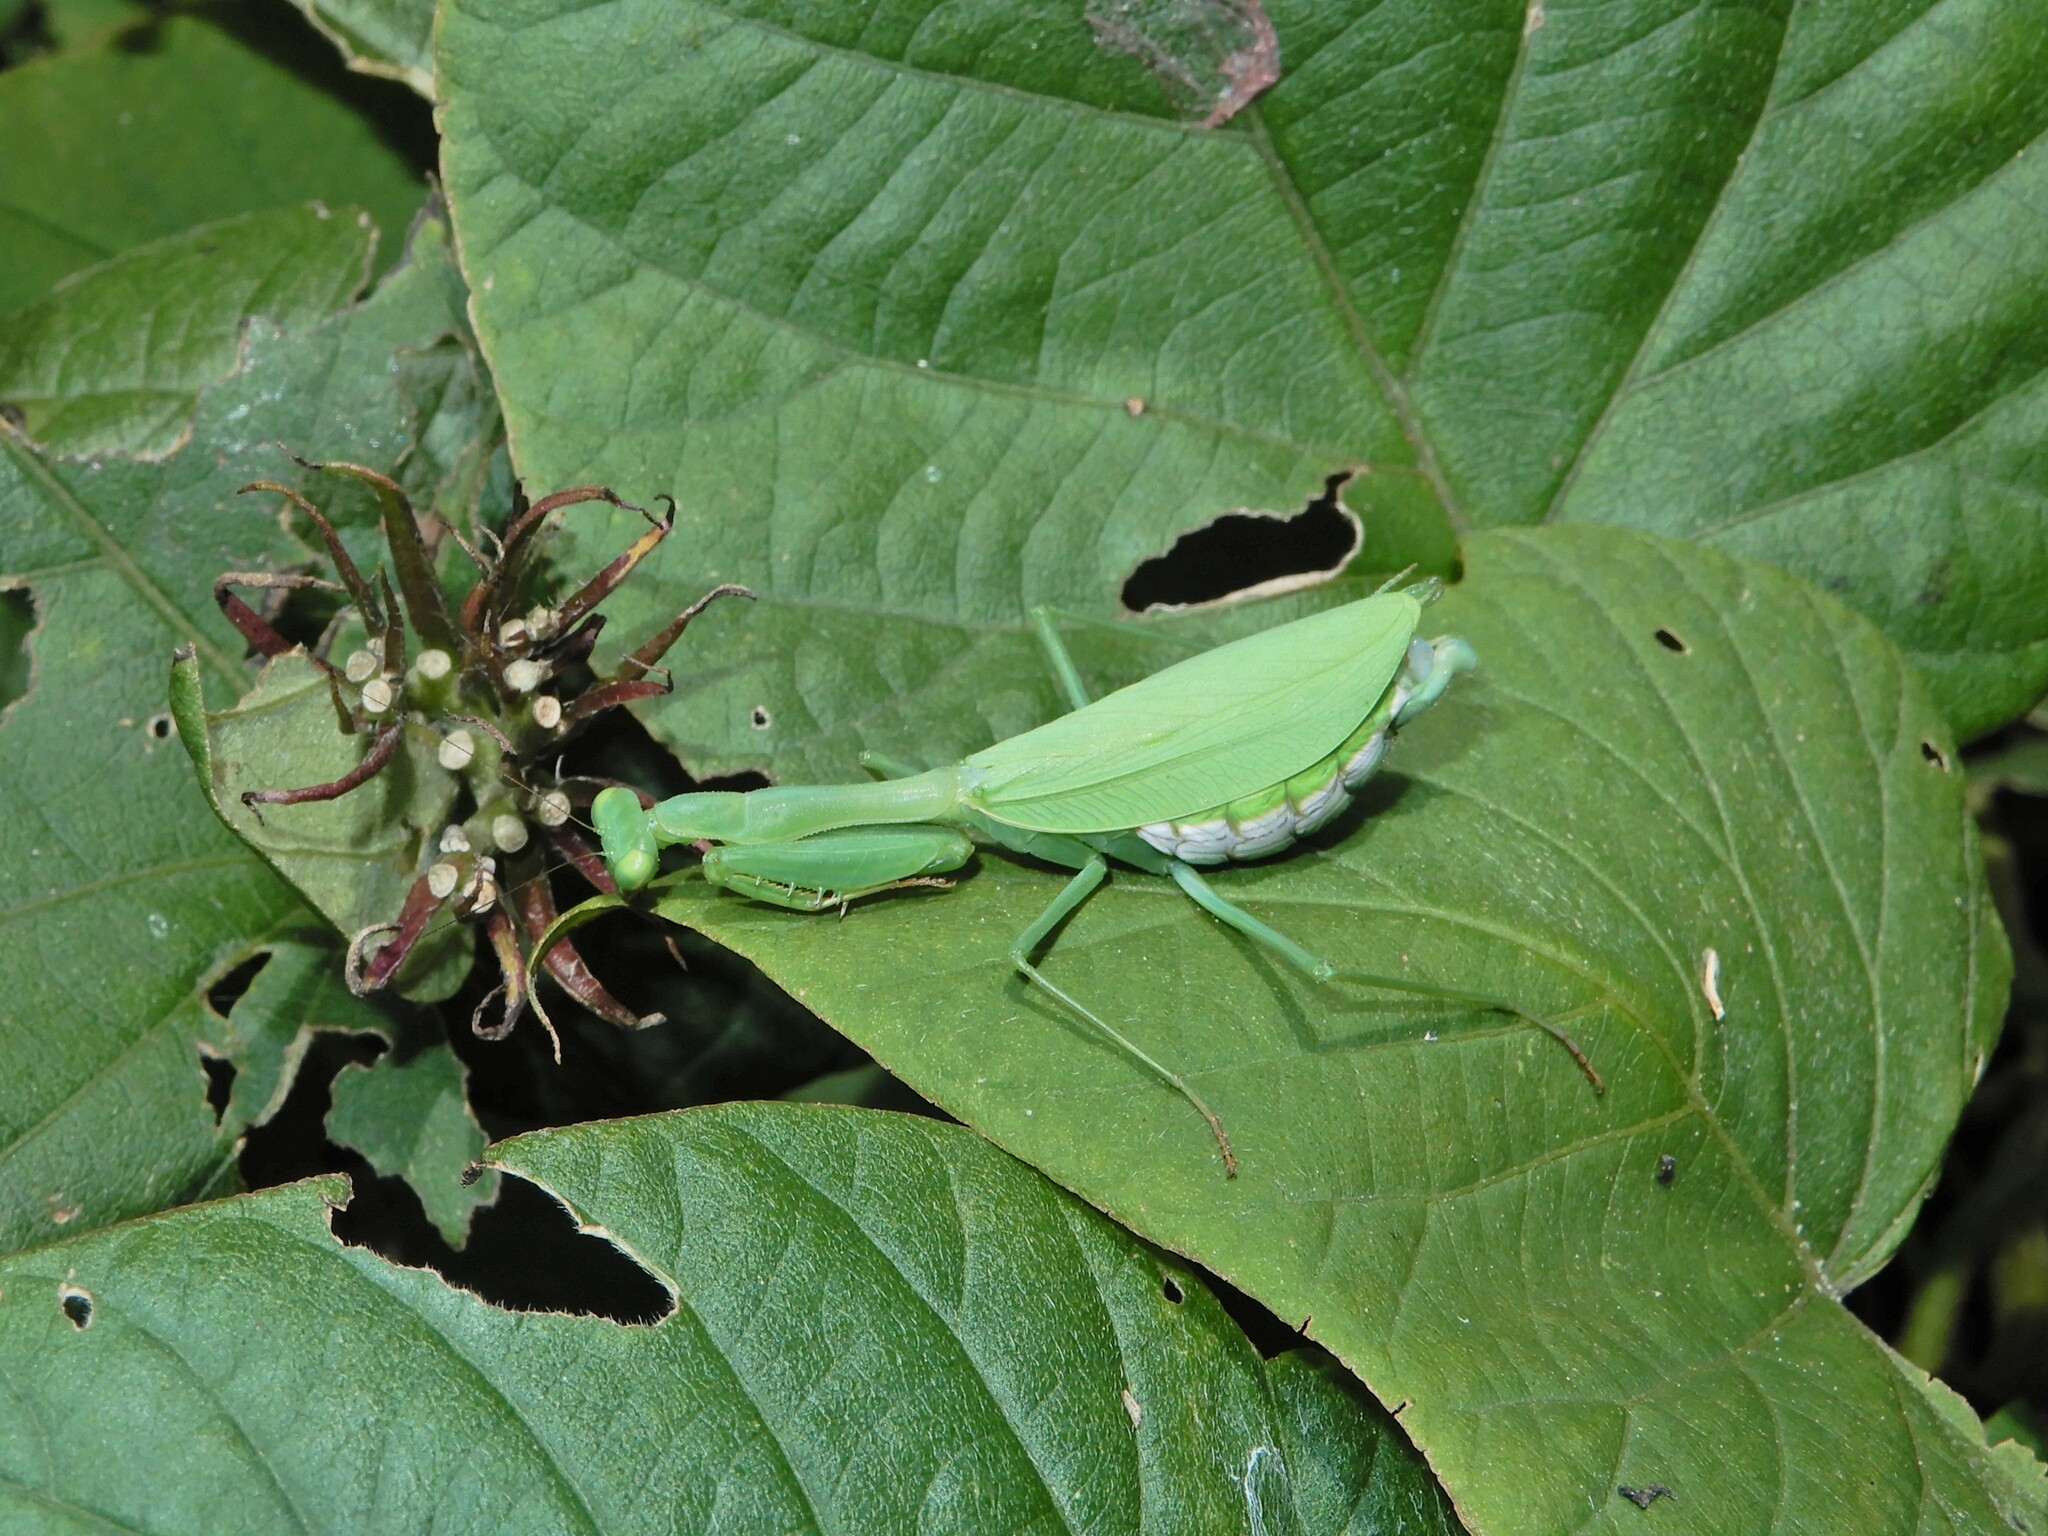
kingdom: Animalia
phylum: Arthropoda
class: Insecta
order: Mantodea
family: Miomantidae
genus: Miomantis
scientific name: Miomantis caffra
